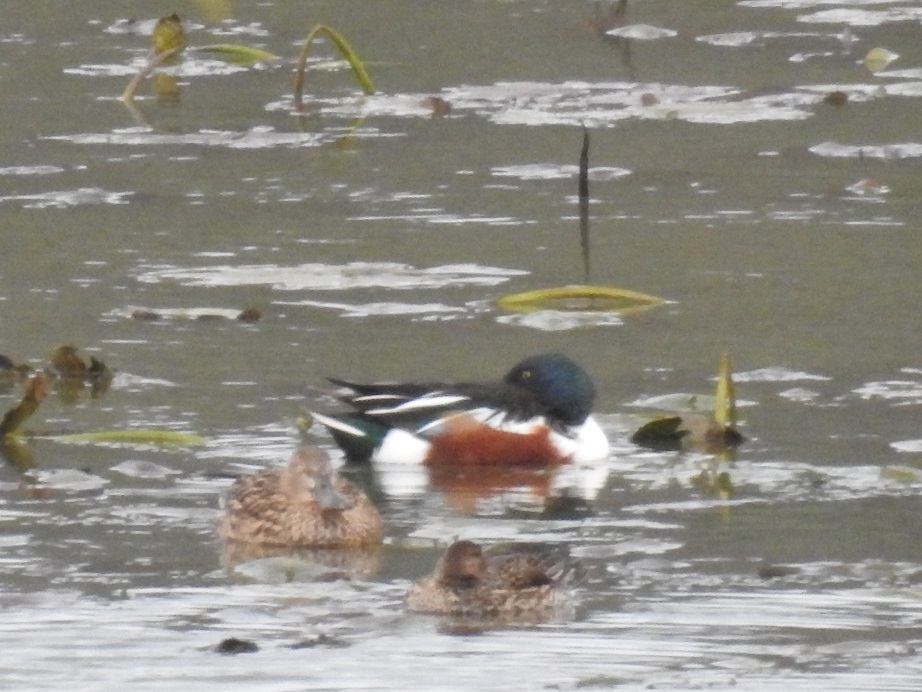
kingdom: Animalia
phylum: Chordata
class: Aves
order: Anseriformes
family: Anatidae
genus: Spatula
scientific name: Spatula clypeata
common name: Northern shoveler
